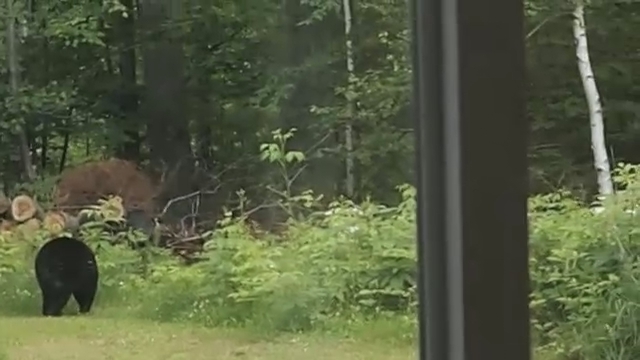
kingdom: Animalia
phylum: Chordata
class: Mammalia
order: Carnivora
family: Ursidae
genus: Ursus
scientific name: Ursus americanus
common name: American black bear
